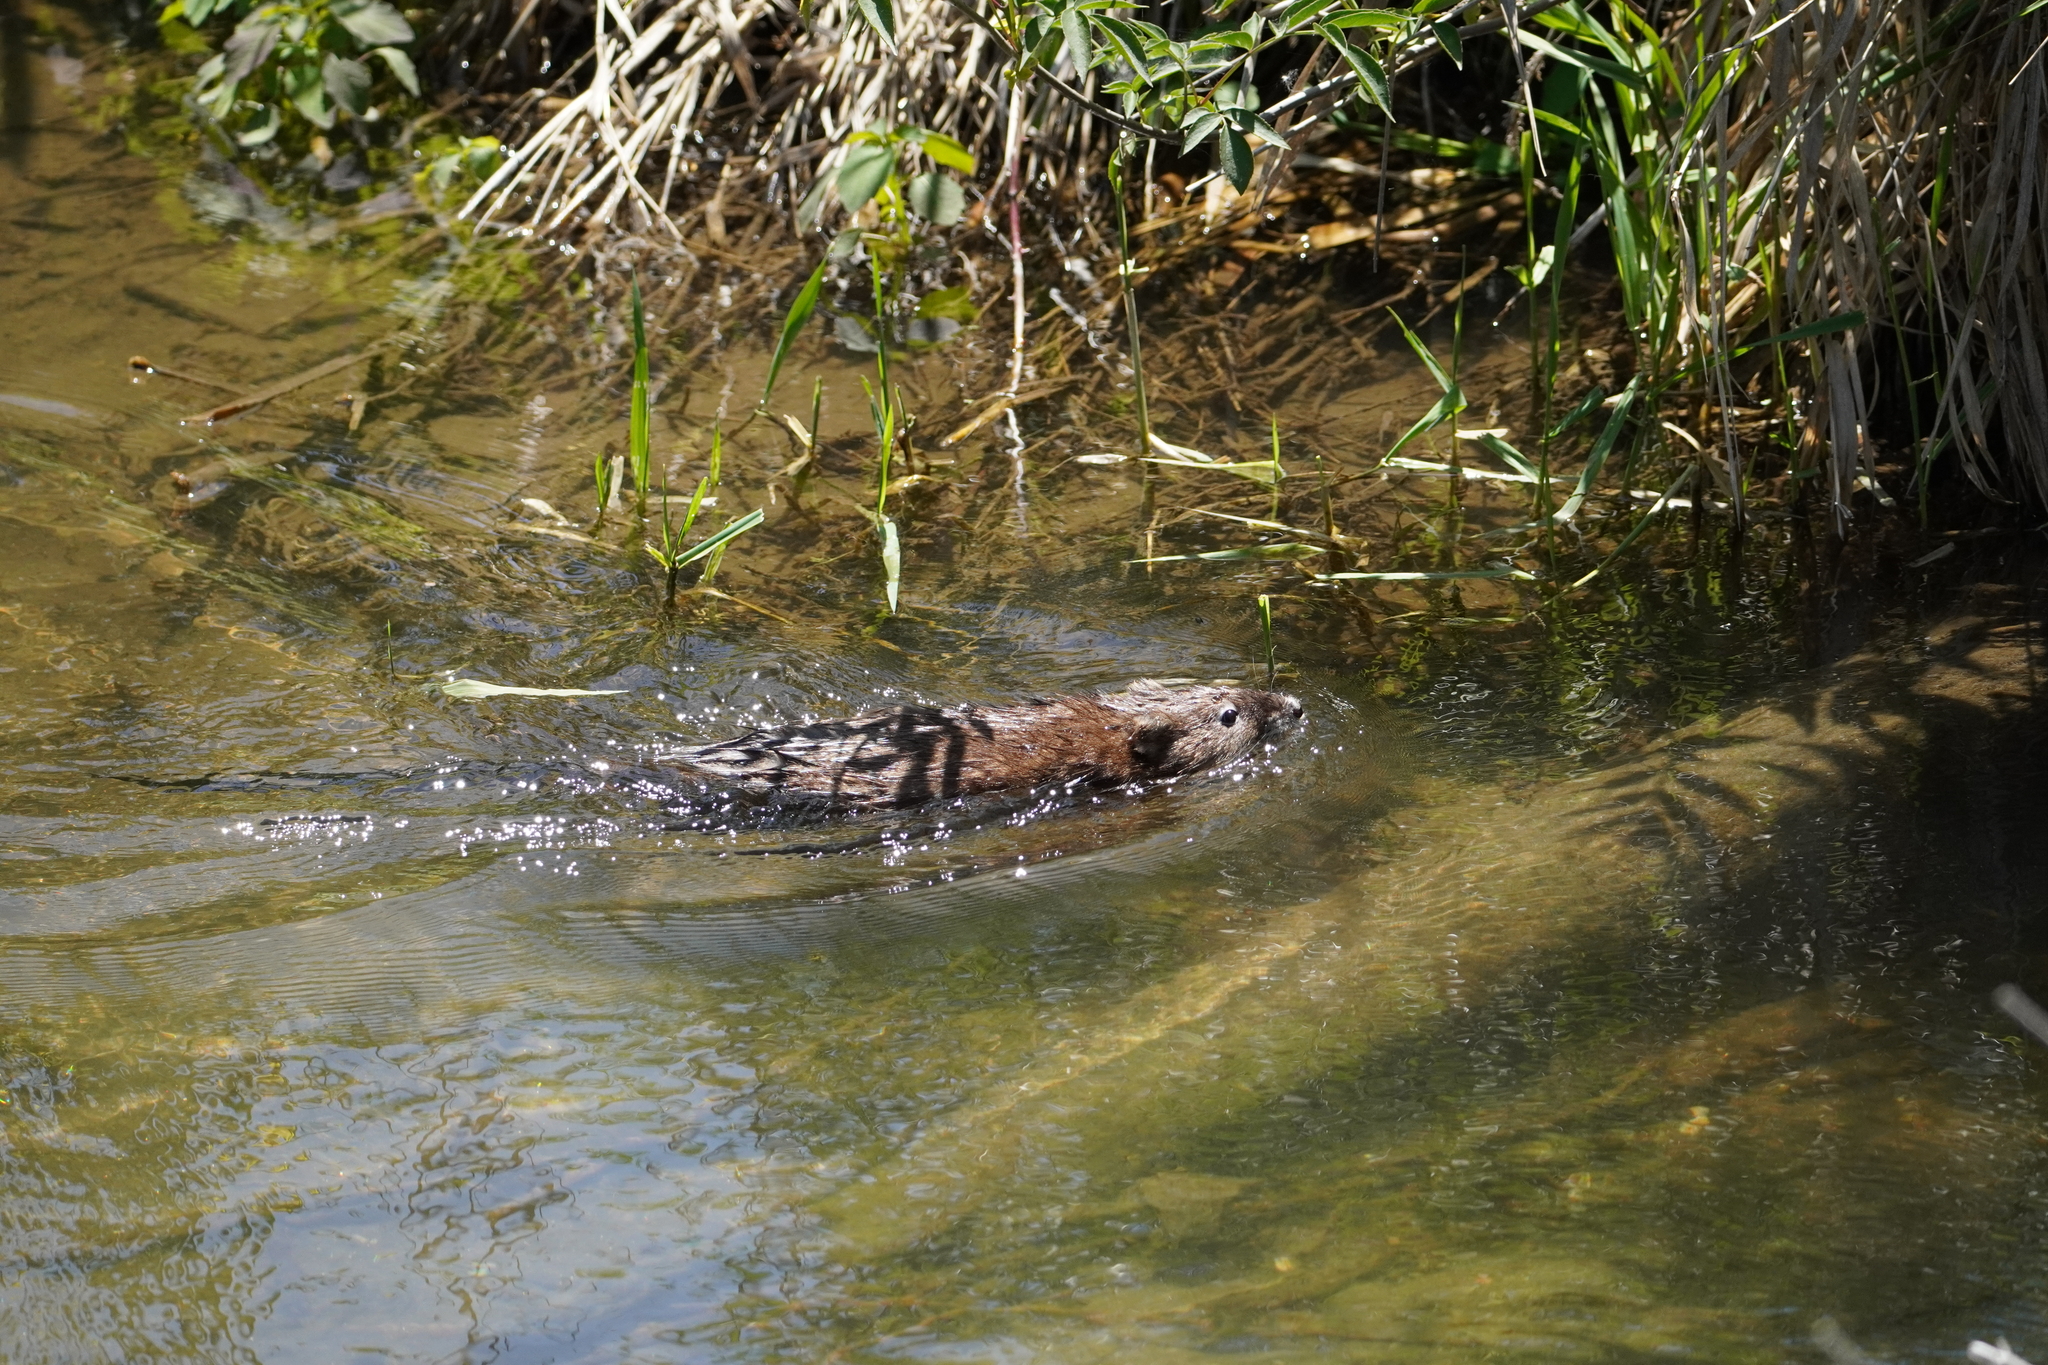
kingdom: Animalia
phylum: Chordata
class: Mammalia
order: Rodentia
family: Cricetidae
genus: Ondatra
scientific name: Ondatra zibethicus
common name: Muskrat
